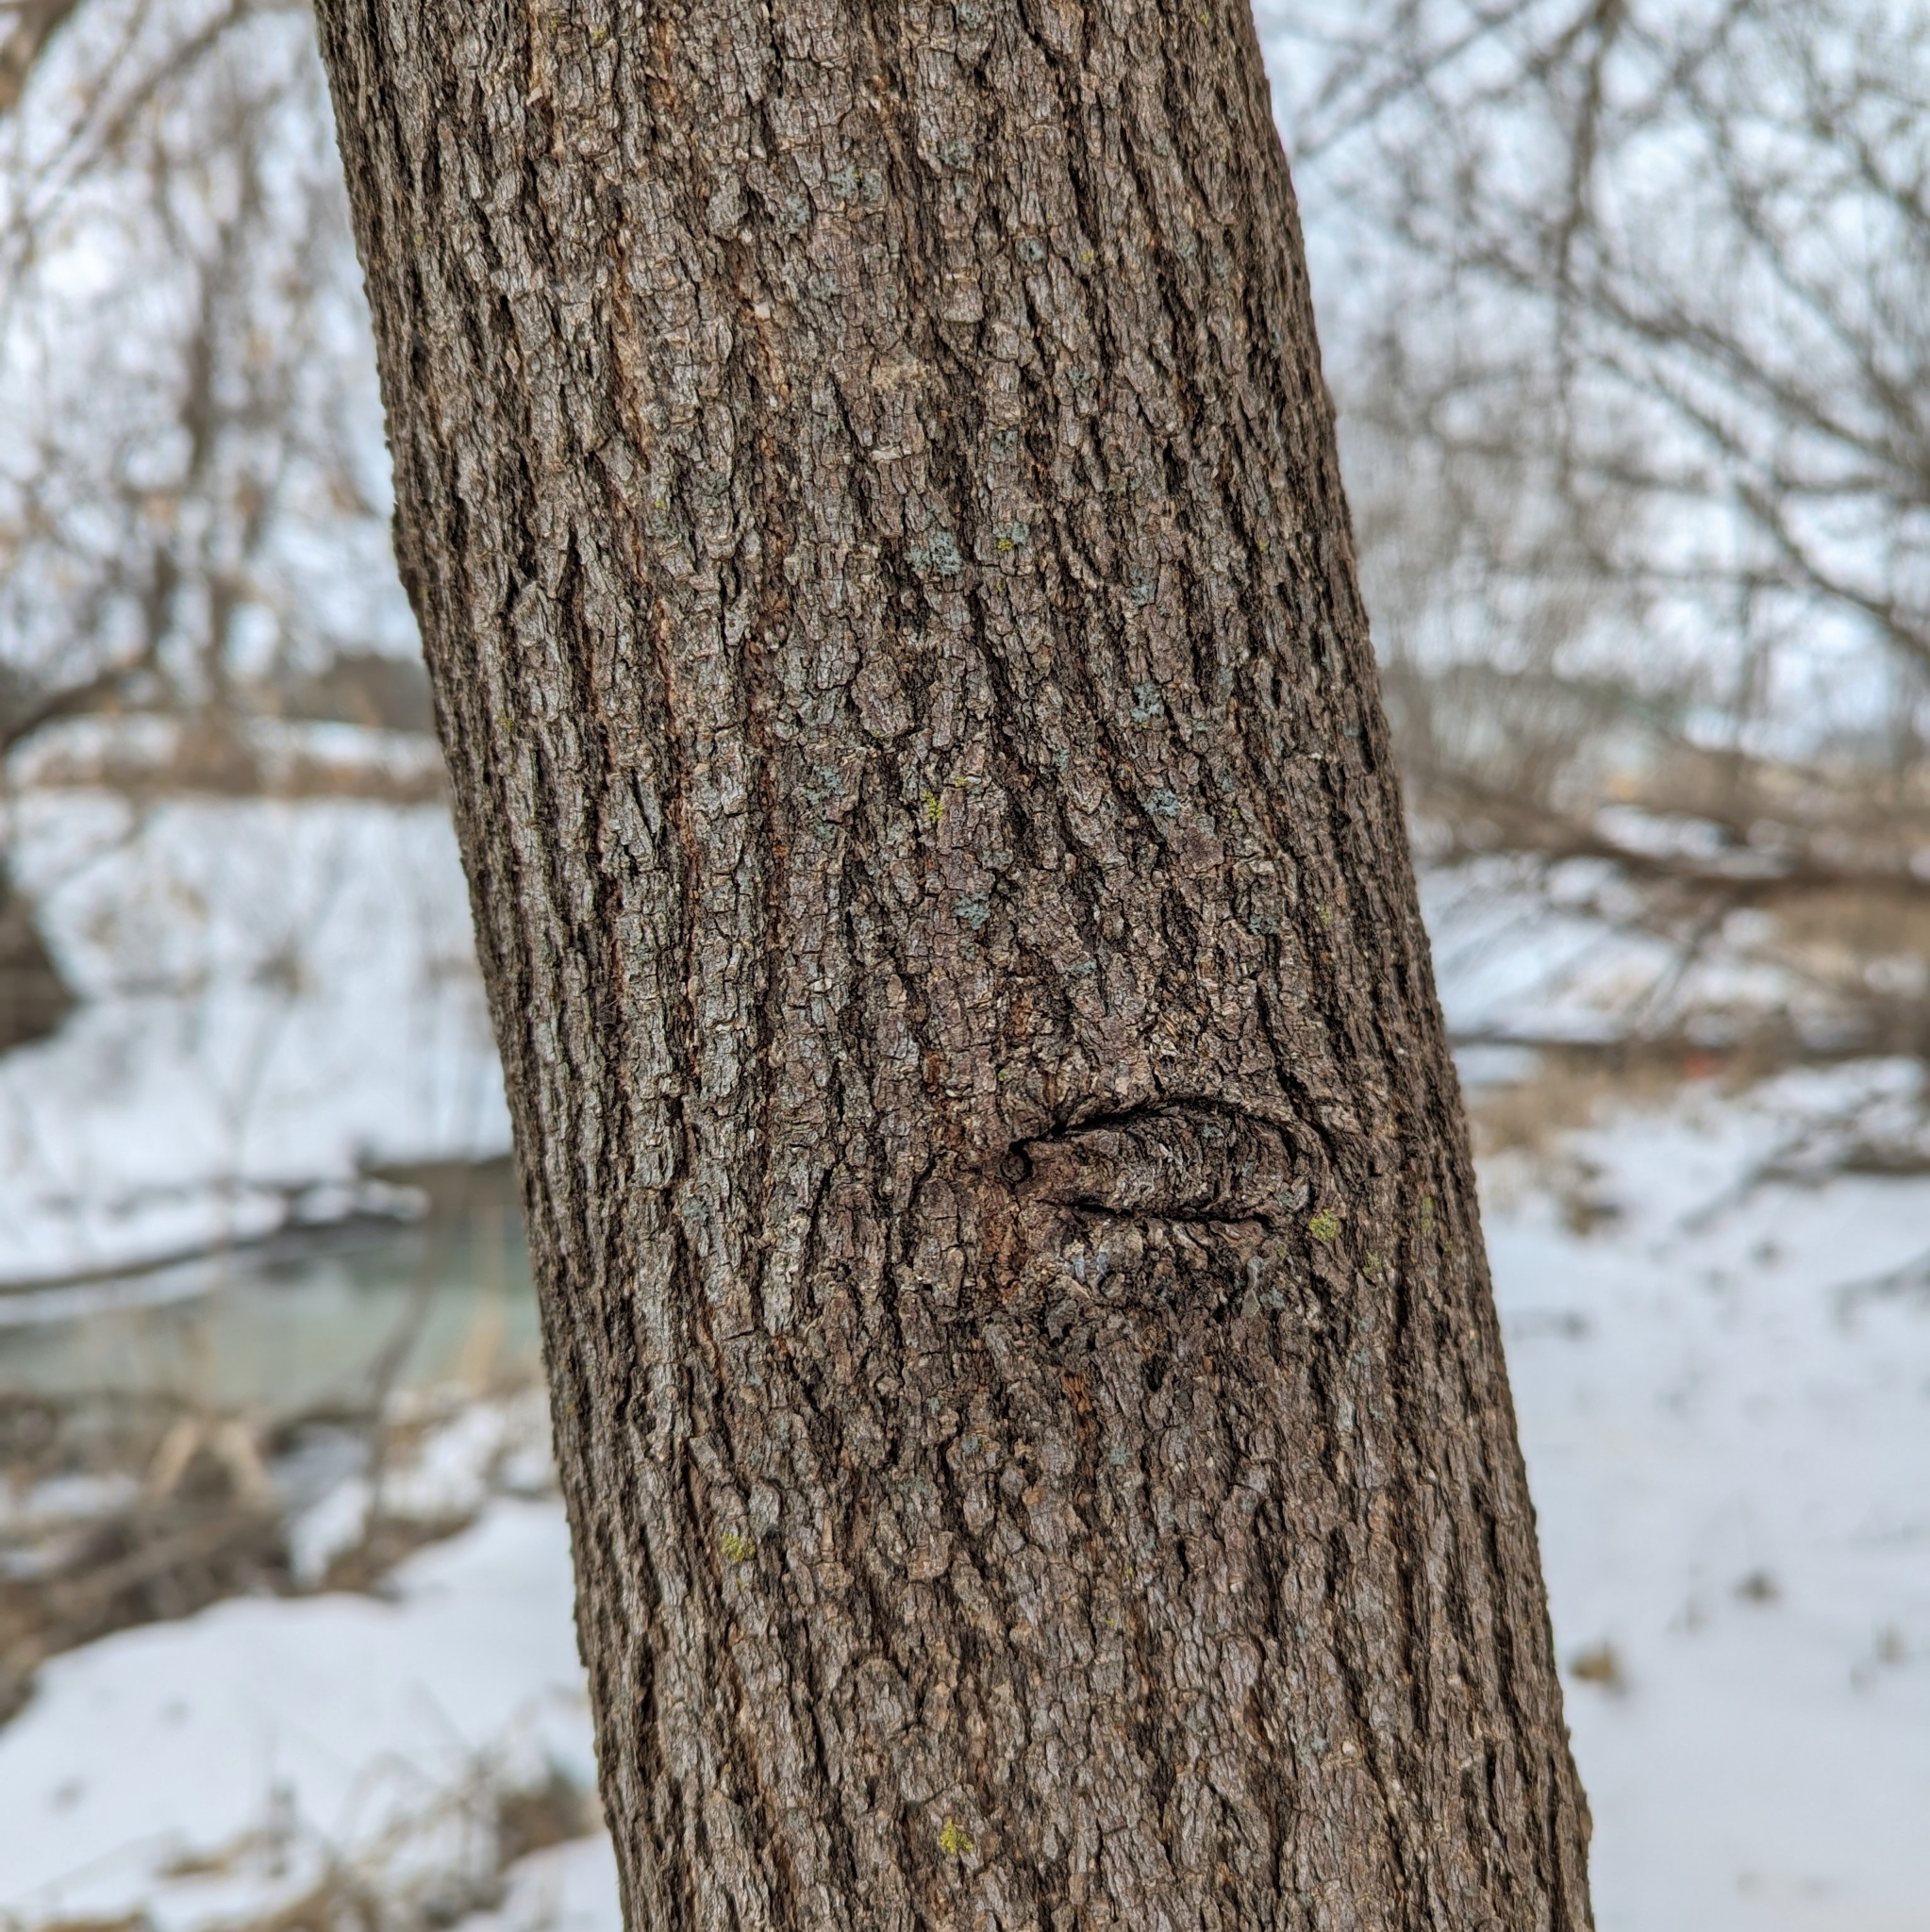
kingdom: Plantae
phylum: Tracheophyta
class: Magnoliopsida
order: Sapindales
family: Sapindaceae
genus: Acer
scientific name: Acer negundo
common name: Ashleaf maple
